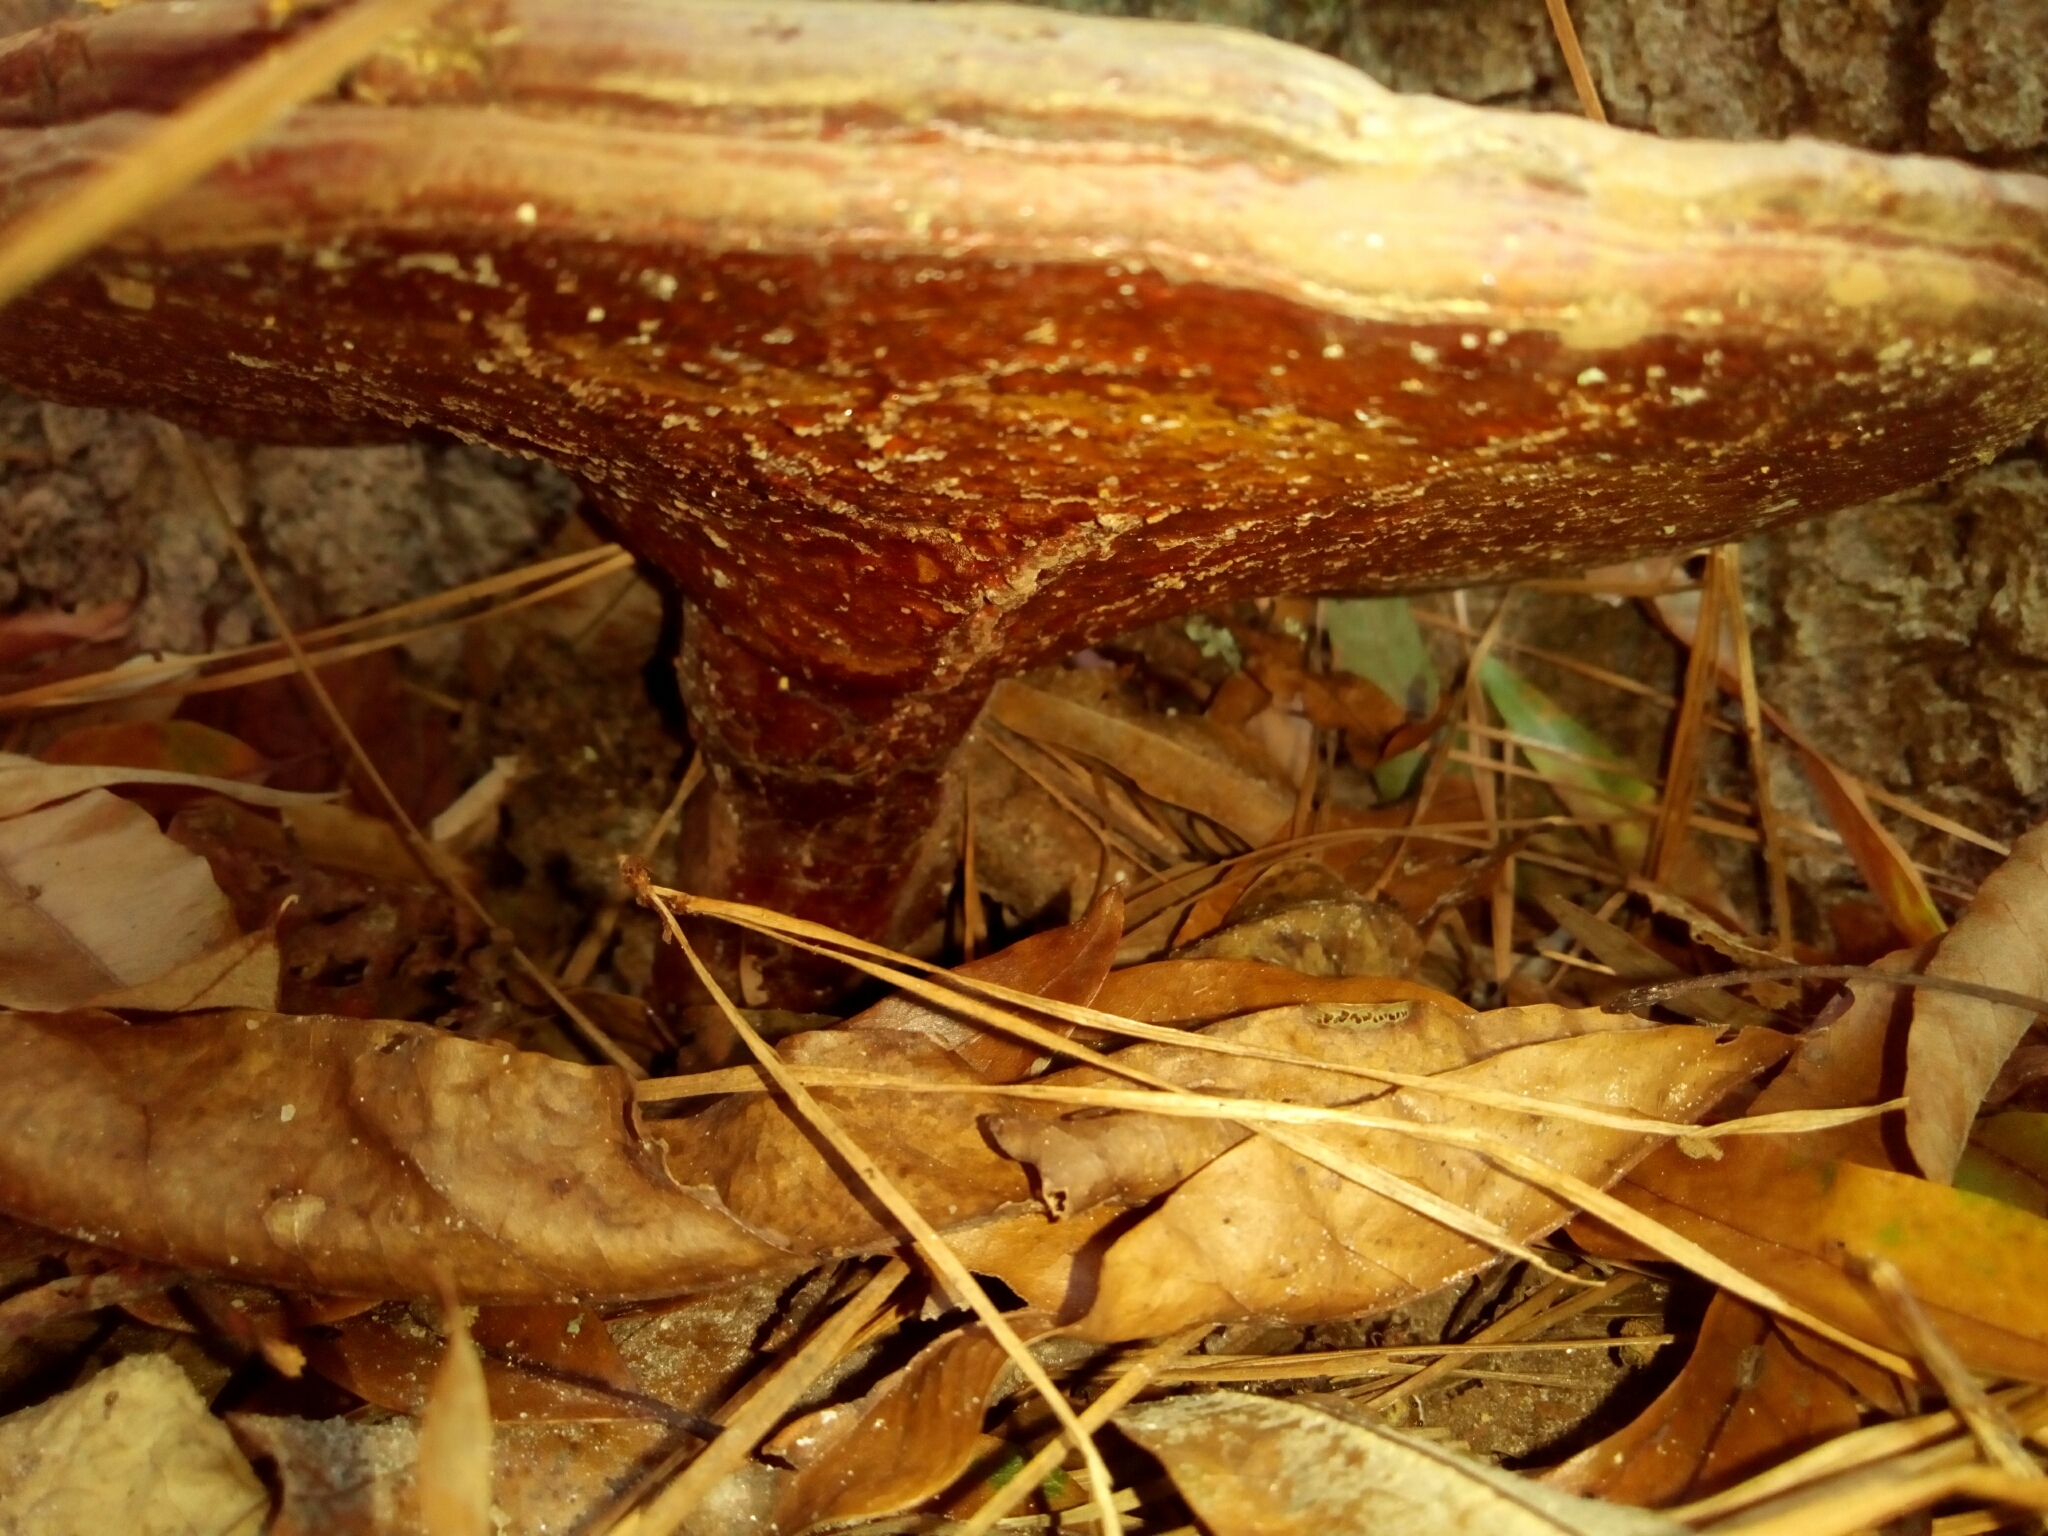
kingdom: Fungi
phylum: Basidiomycota
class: Agaricomycetes
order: Polyporales
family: Polyporaceae
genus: Ganoderma
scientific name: Ganoderma curtisii
